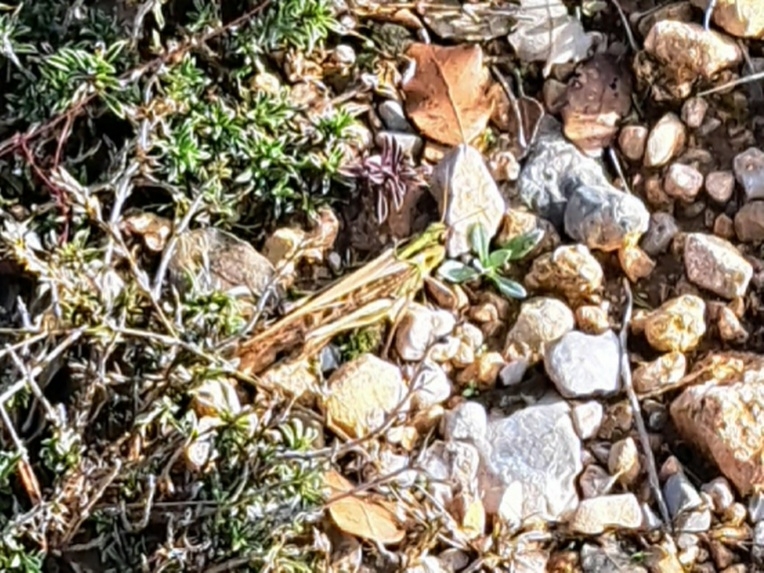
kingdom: Animalia
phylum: Arthropoda
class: Insecta
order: Orthoptera
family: Acrididae
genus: Locusta
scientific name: Locusta migratoria
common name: Migratory locust
